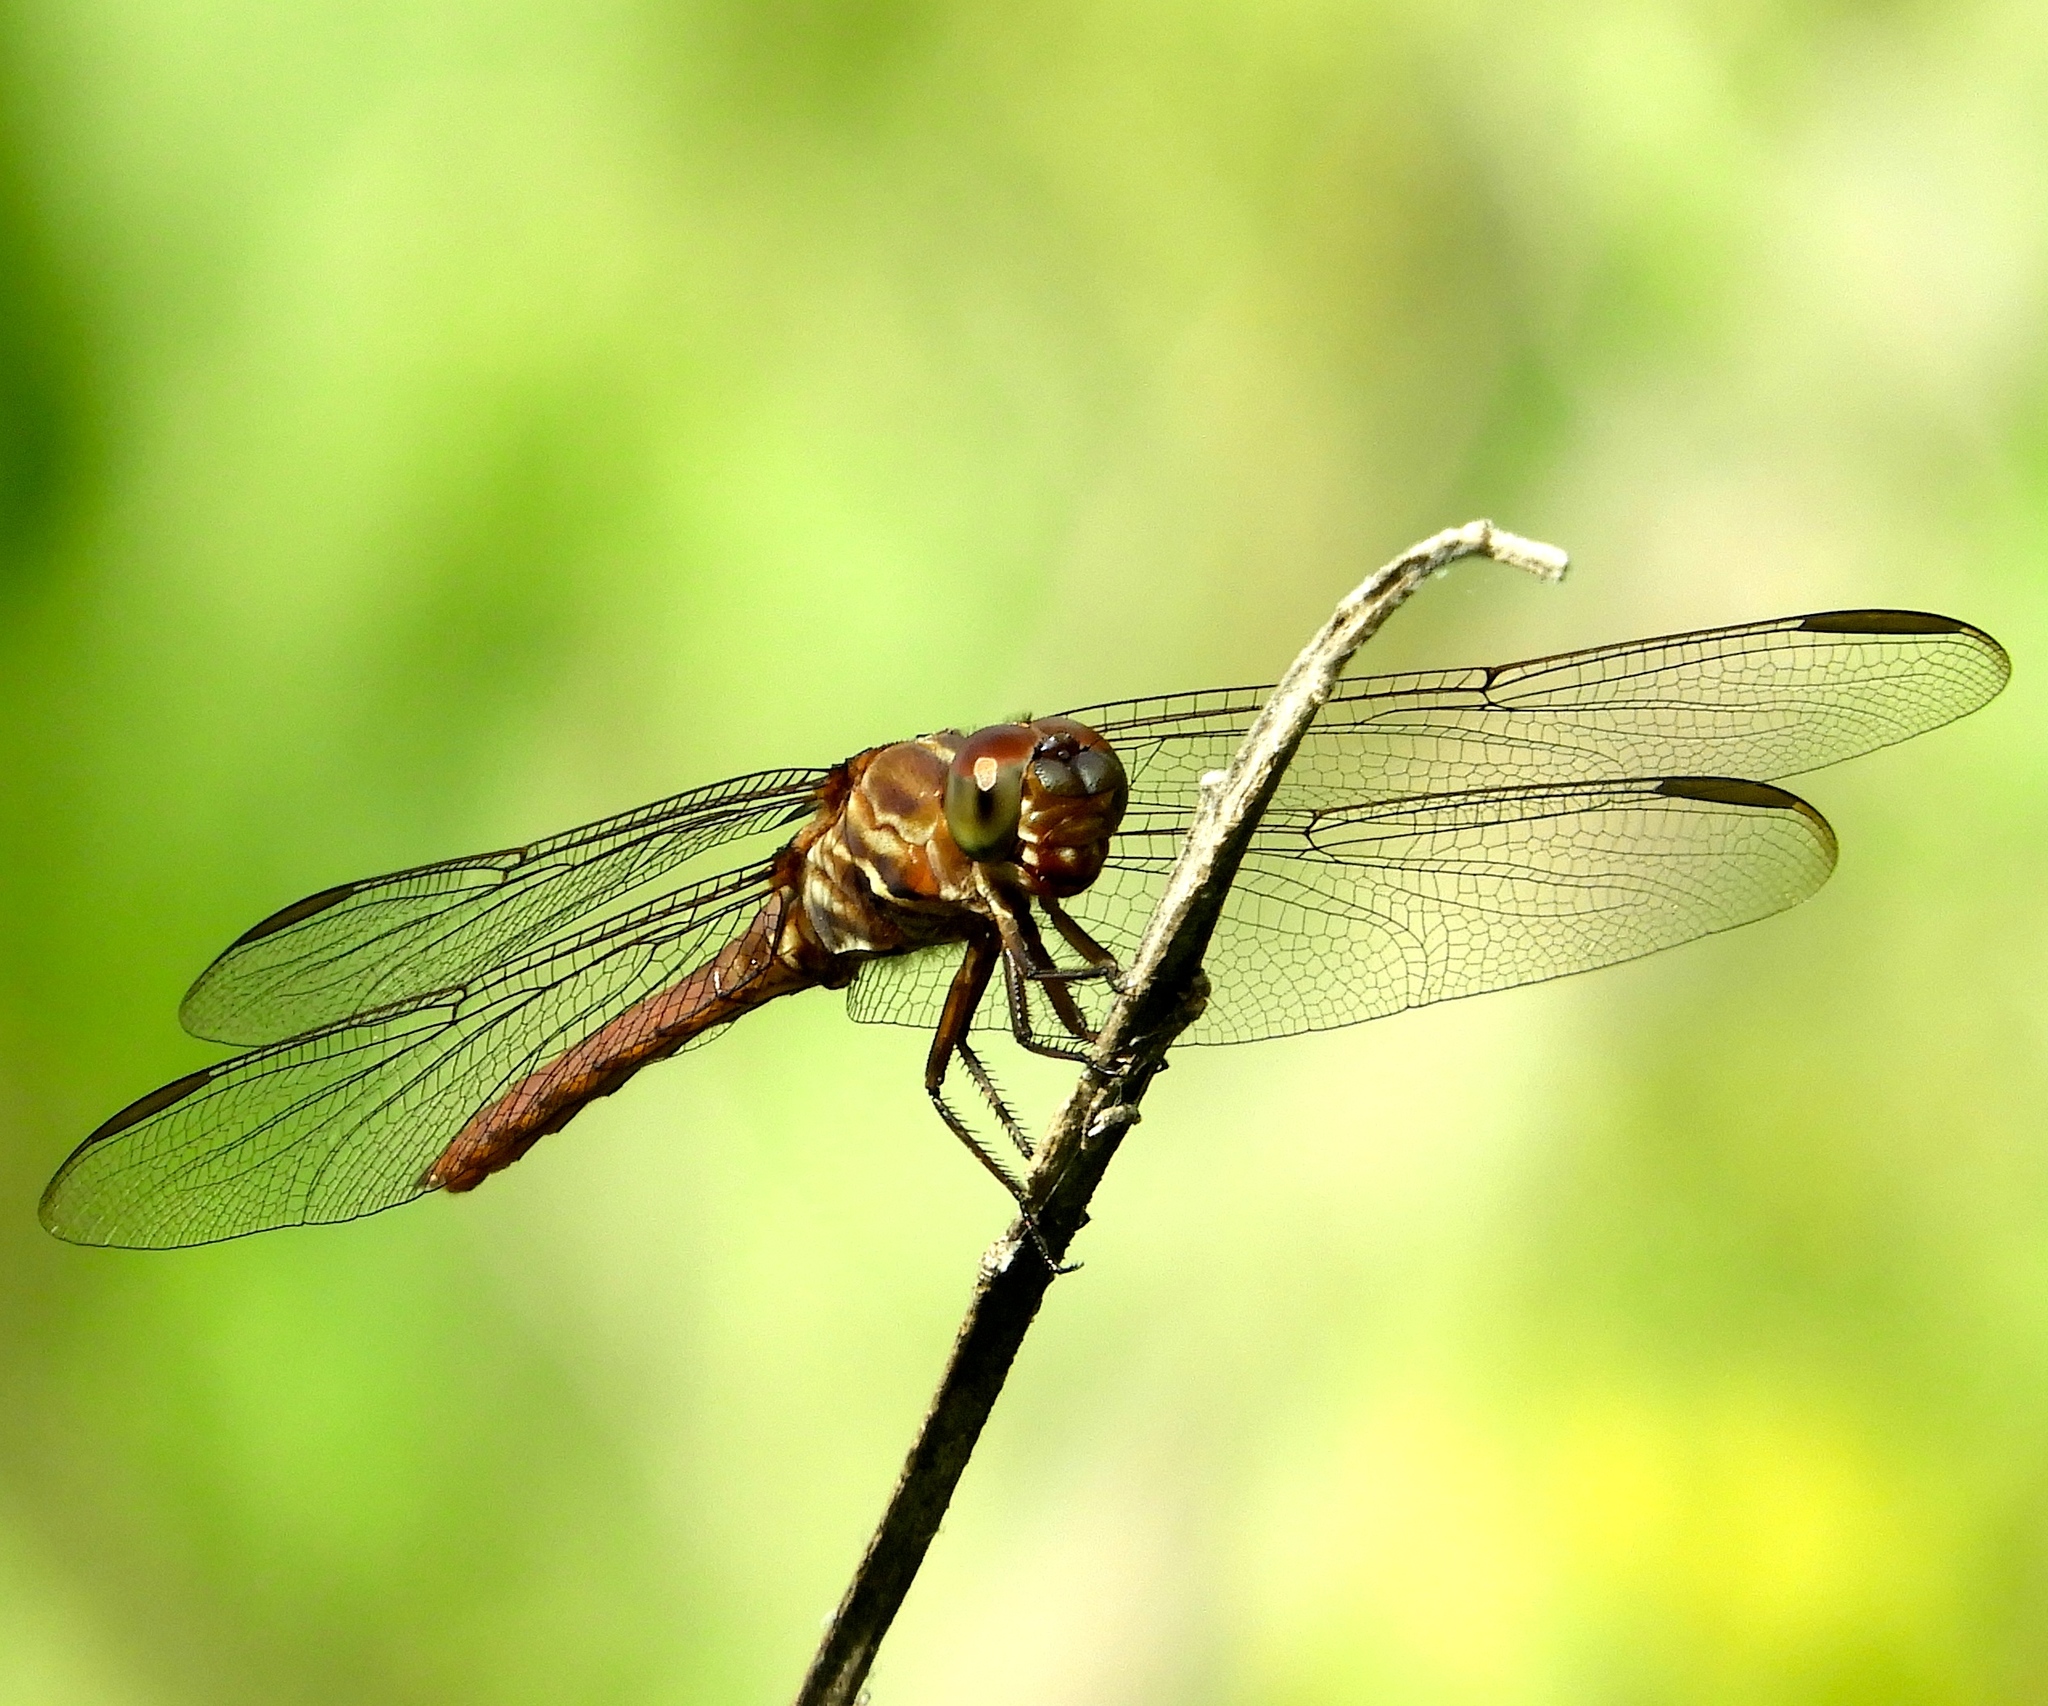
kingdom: Animalia
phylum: Arthropoda
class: Insecta
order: Odonata
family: Libellulidae
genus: Orthemis
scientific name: Orthemis ferruginea
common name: Roseate skimmer
